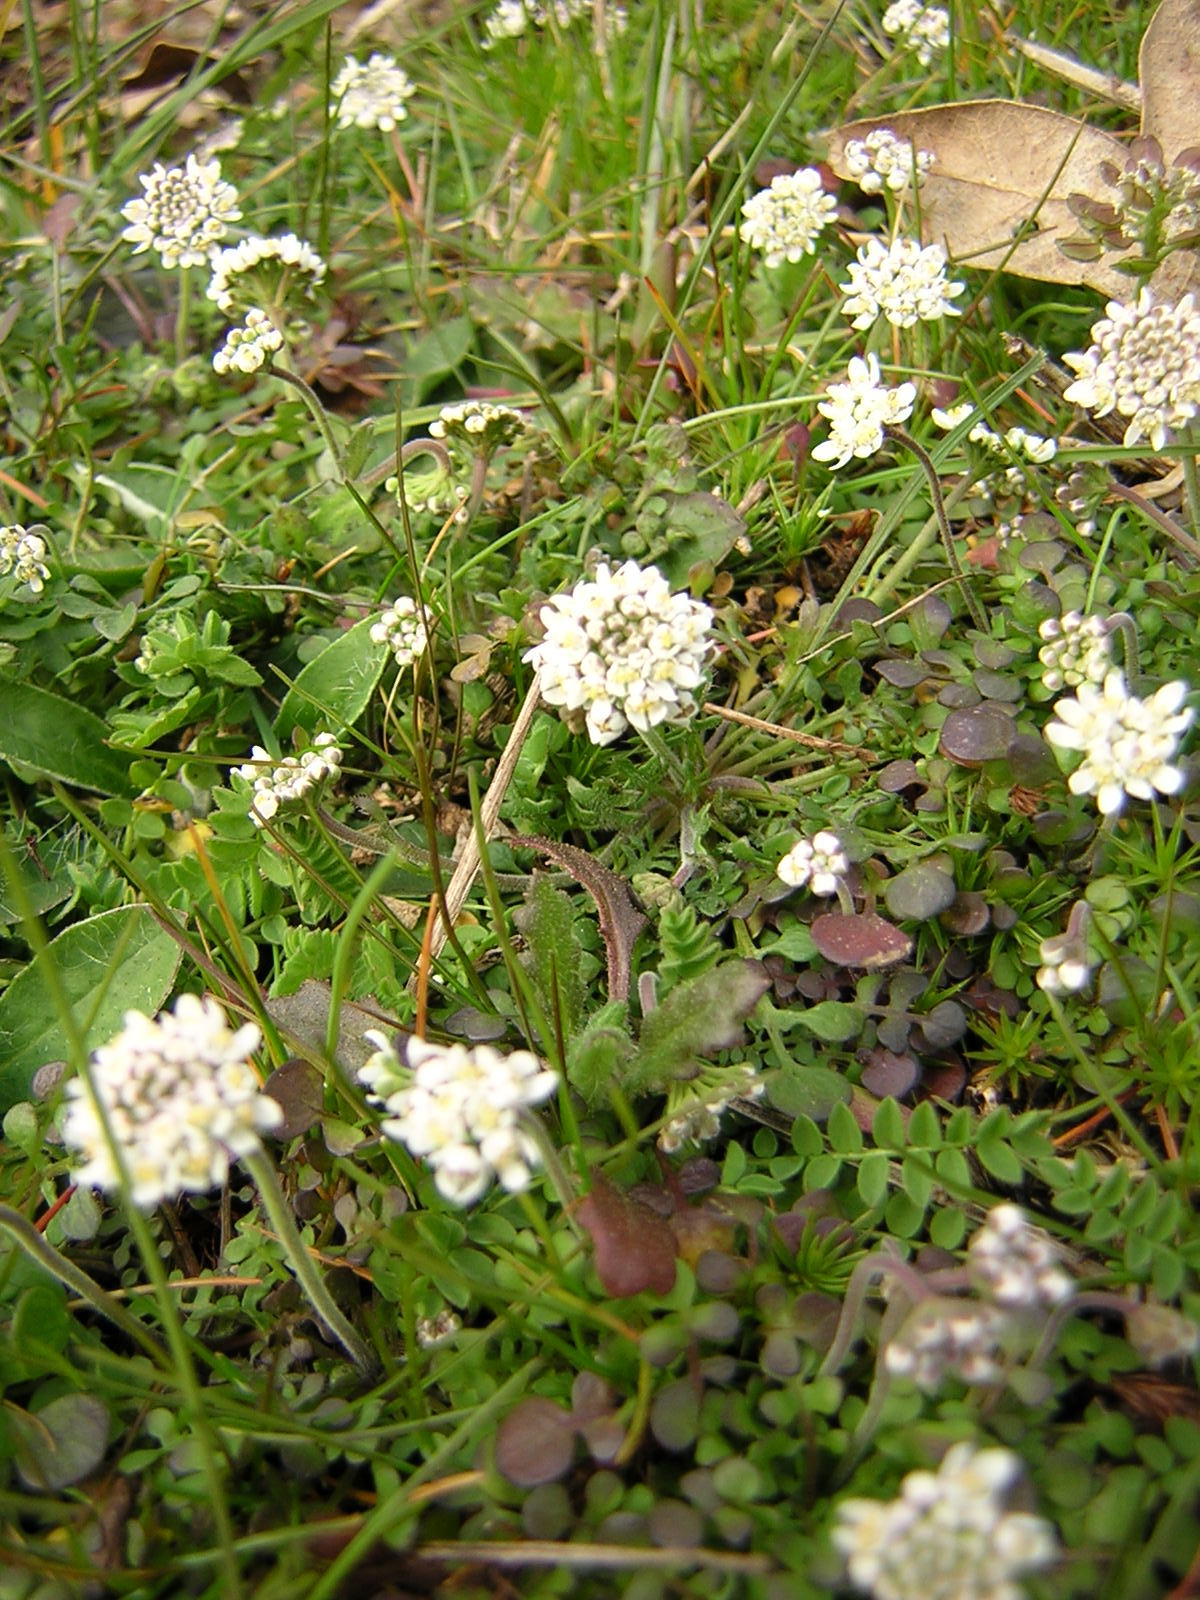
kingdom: Plantae
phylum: Tracheophyta
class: Magnoliopsida
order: Brassicales
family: Brassicaceae
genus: Teesdalia
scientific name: Teesdalia nudicaulis
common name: Shepherd's cress
